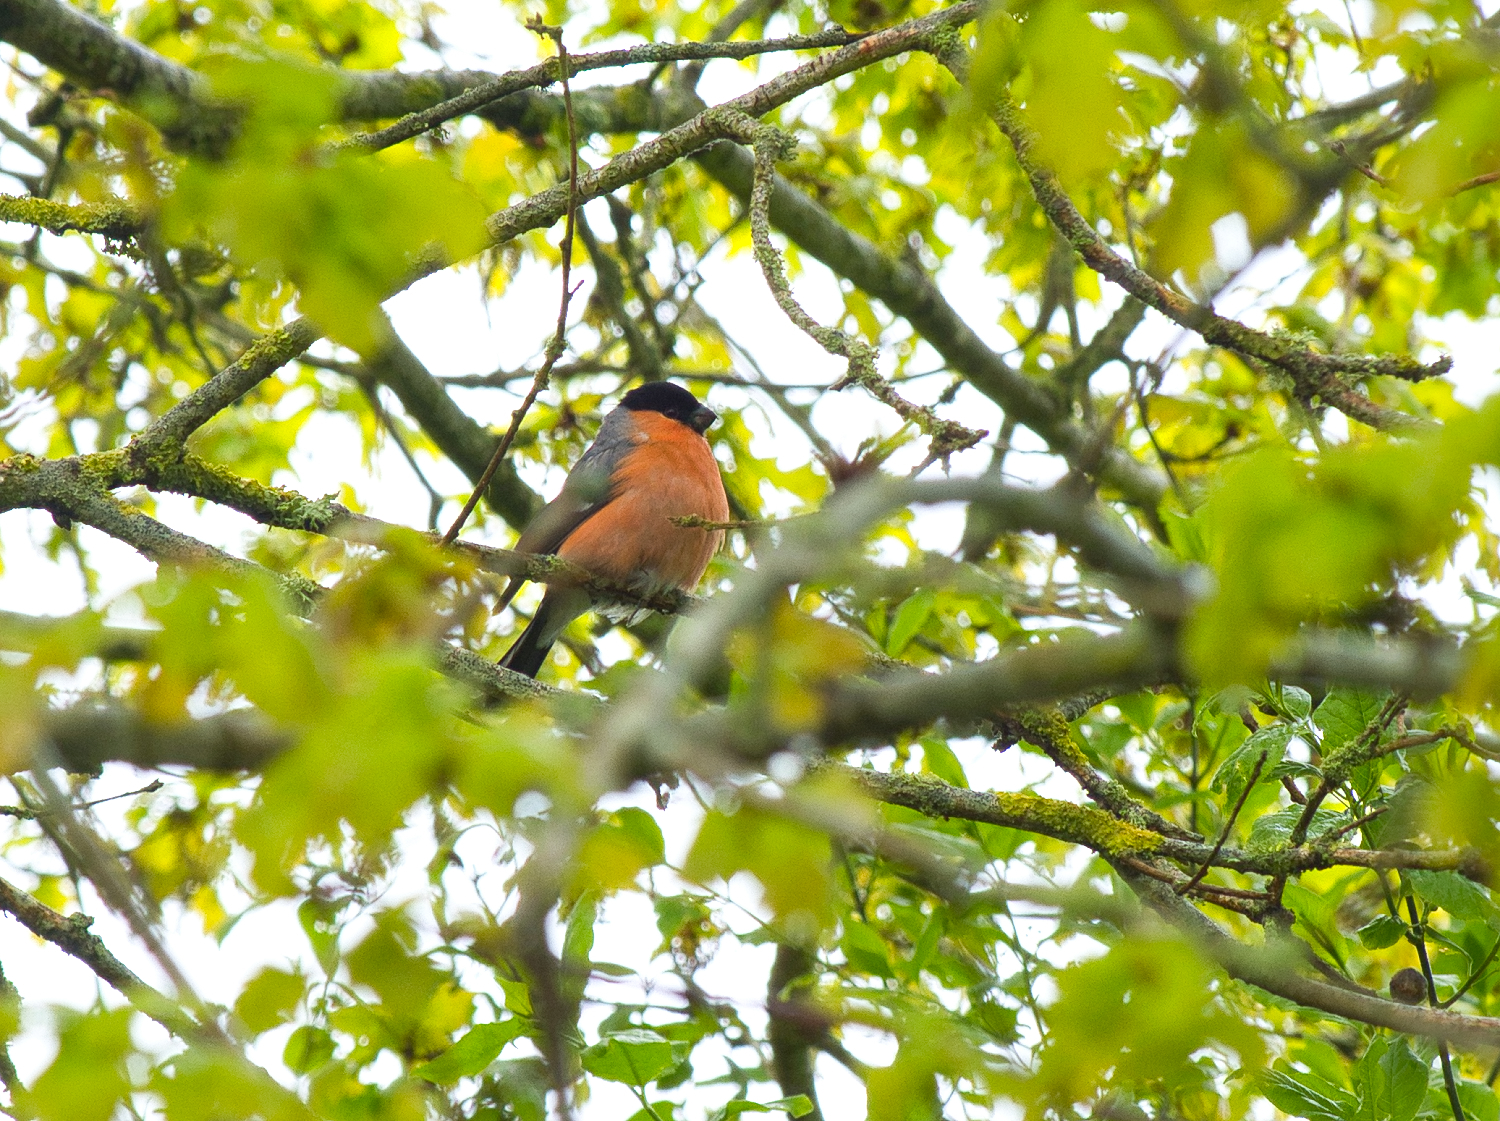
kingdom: Animalia
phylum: Chordata
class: Aves
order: Passeriformes
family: Fringillidae
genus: Pyrrhula
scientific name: Pyrrhula pyrrhula
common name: Eurasian bullfinch
